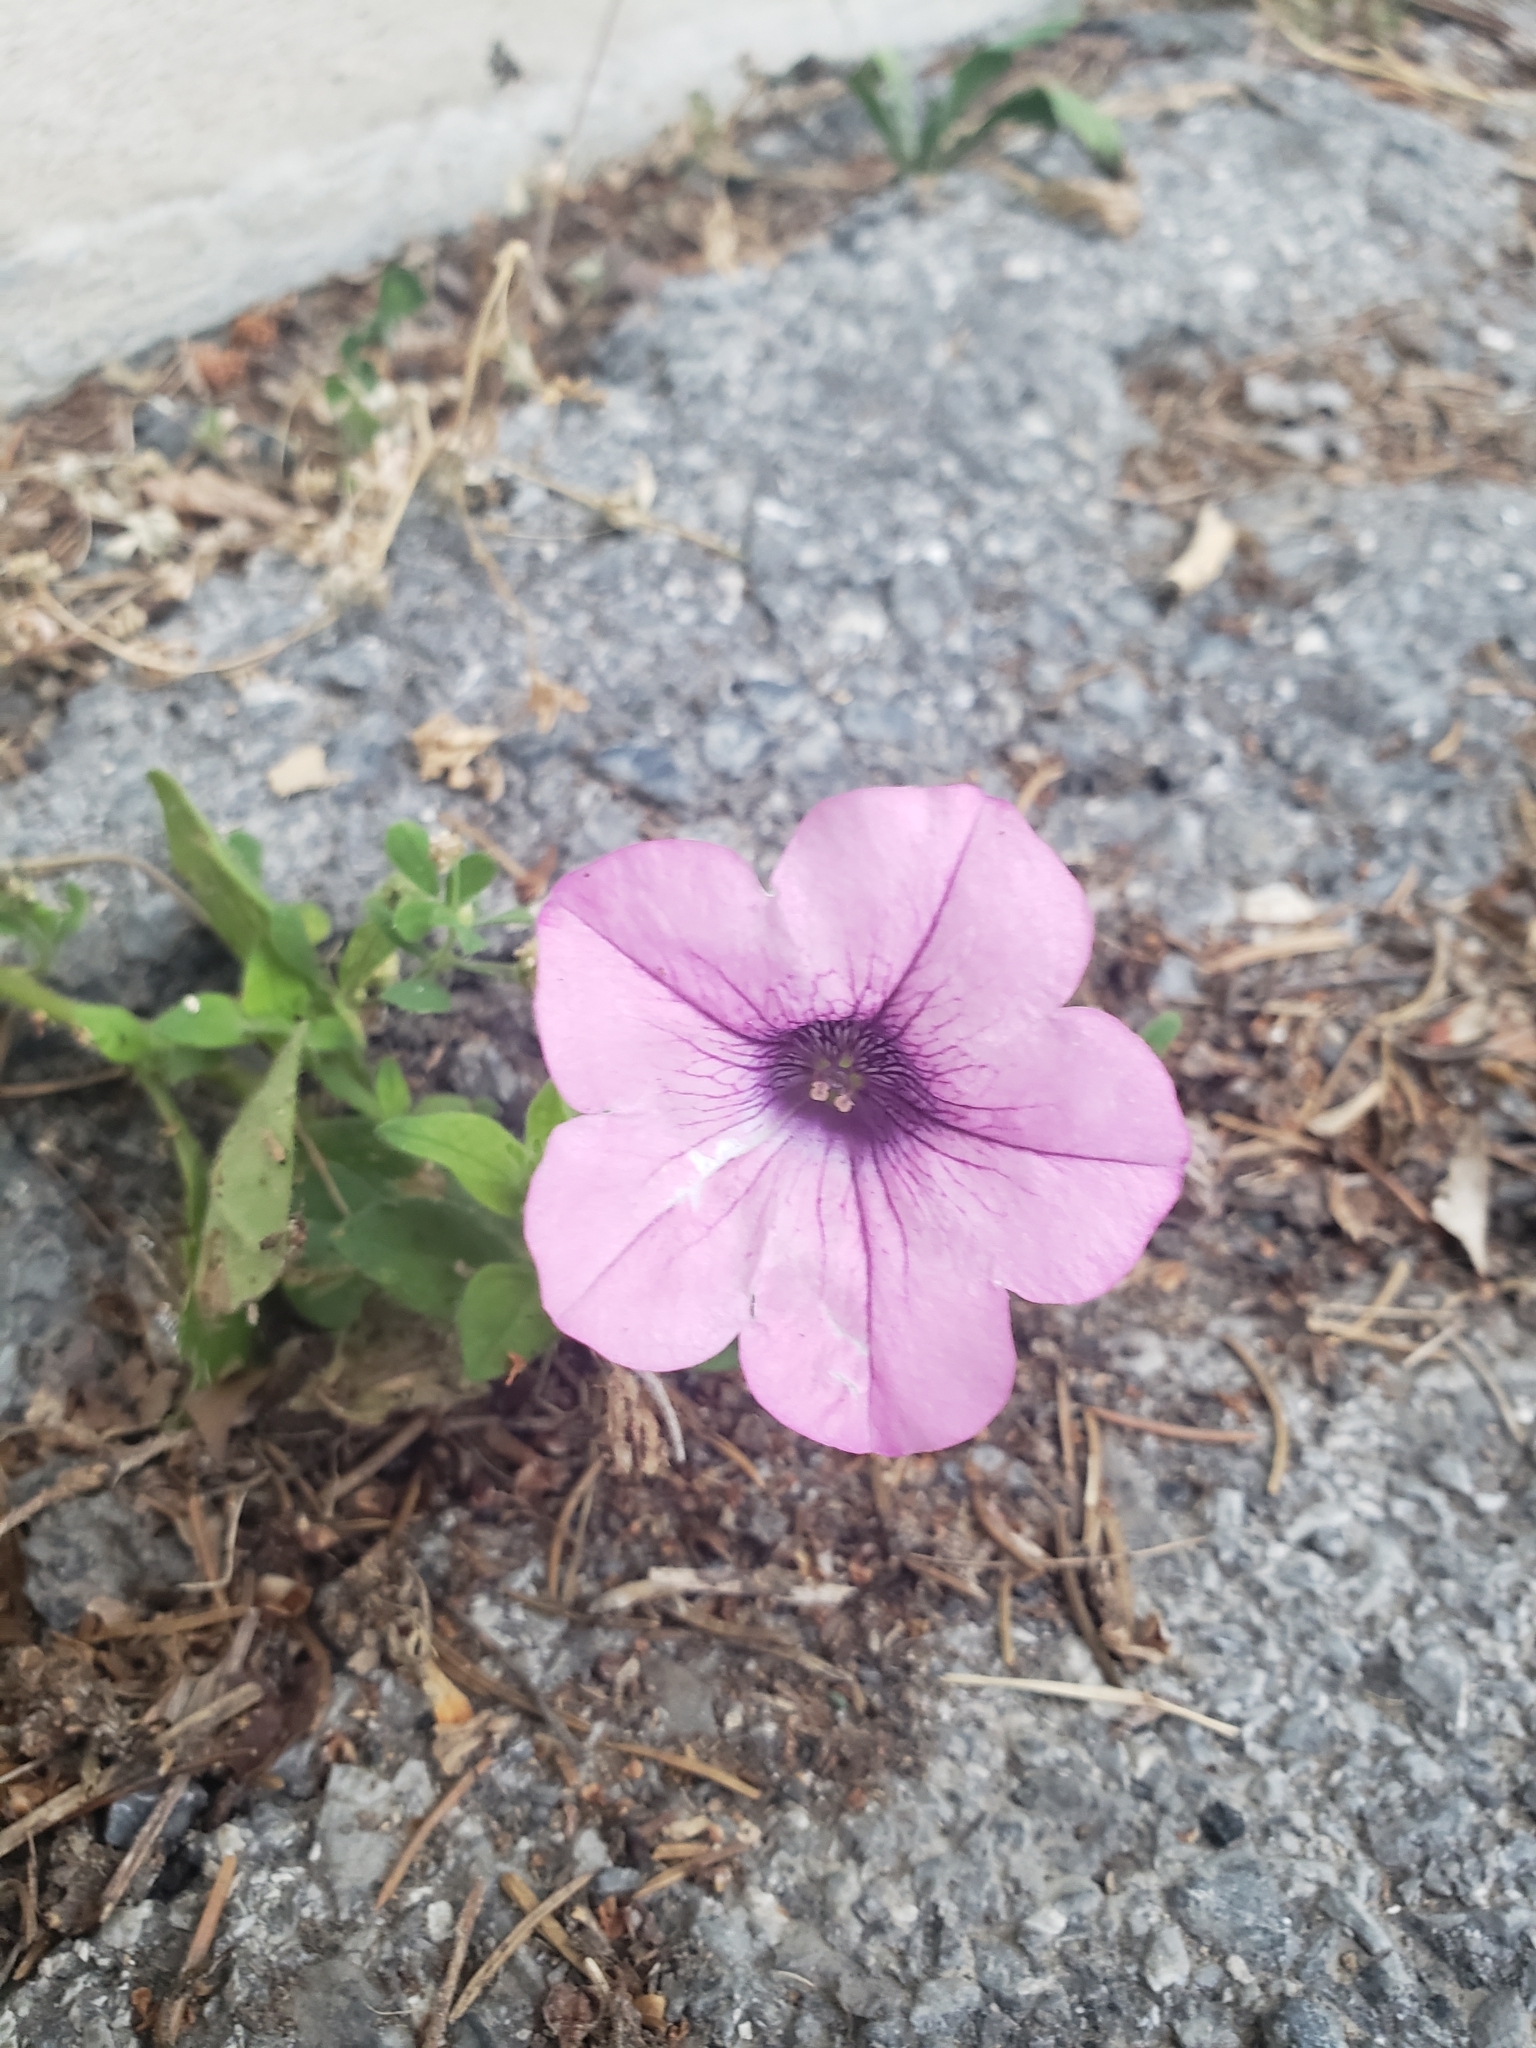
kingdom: Plantae
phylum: Tracheophyta
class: Magnoliopsida
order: Solanales
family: Solanaceae
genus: Petunia
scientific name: Petunia atkinsiana
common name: Petunia
